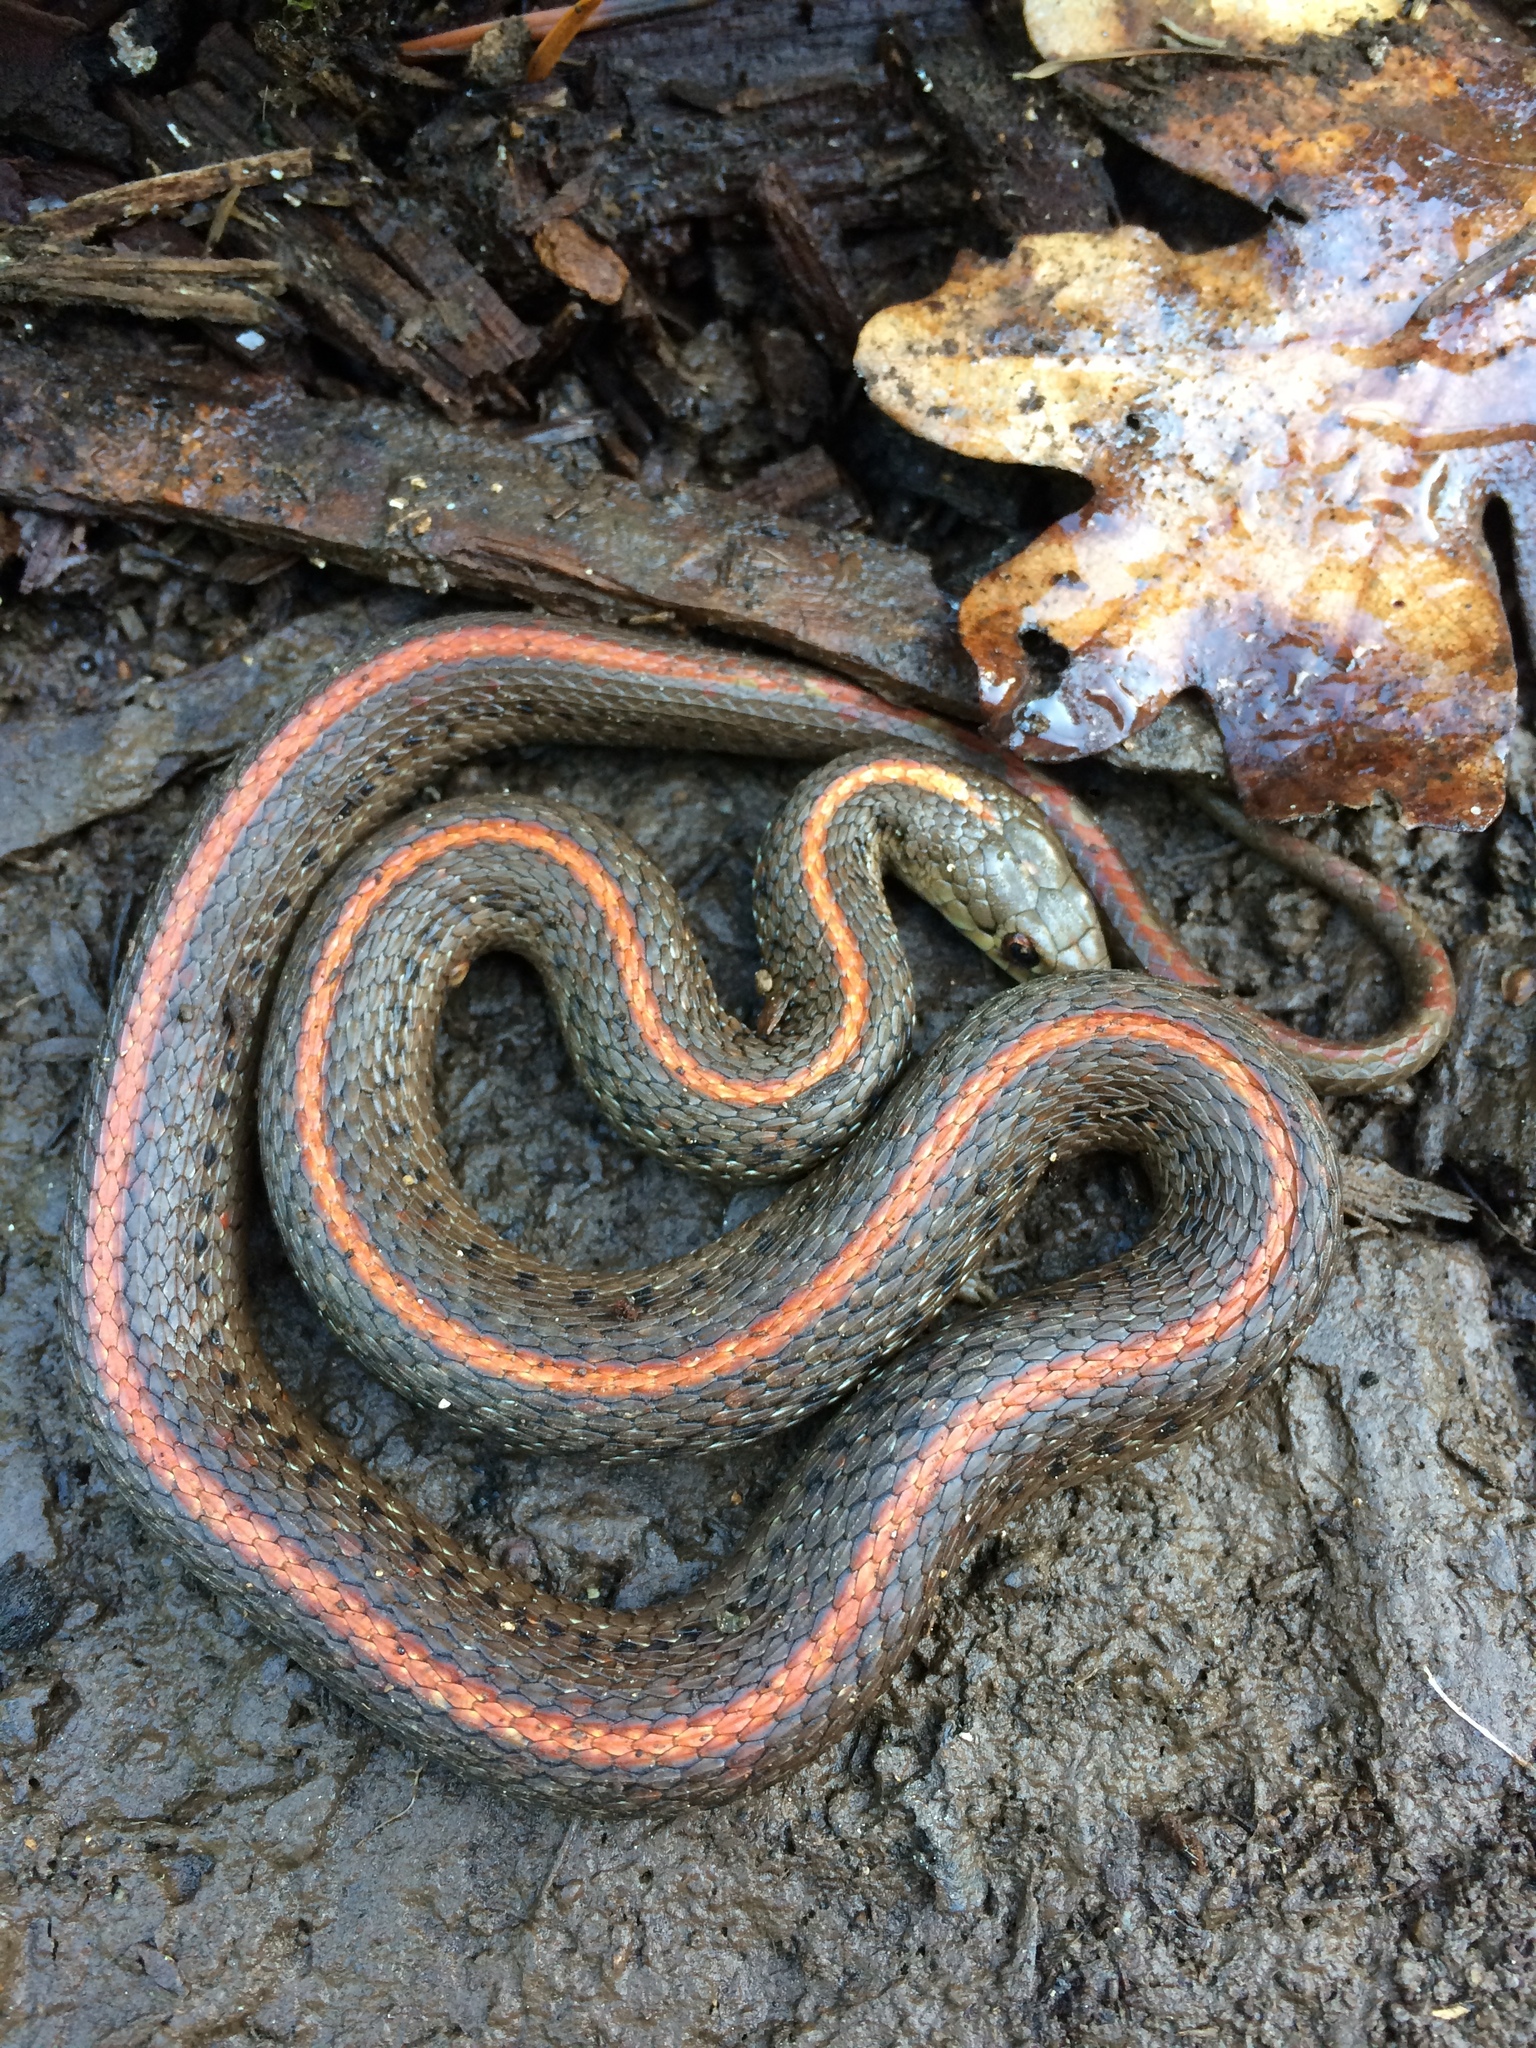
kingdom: Animalia
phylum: Chordata
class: Squamata
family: Colubridae
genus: Thamnophis
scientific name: Thamnophis ordinoides
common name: Northwestern garter snake
